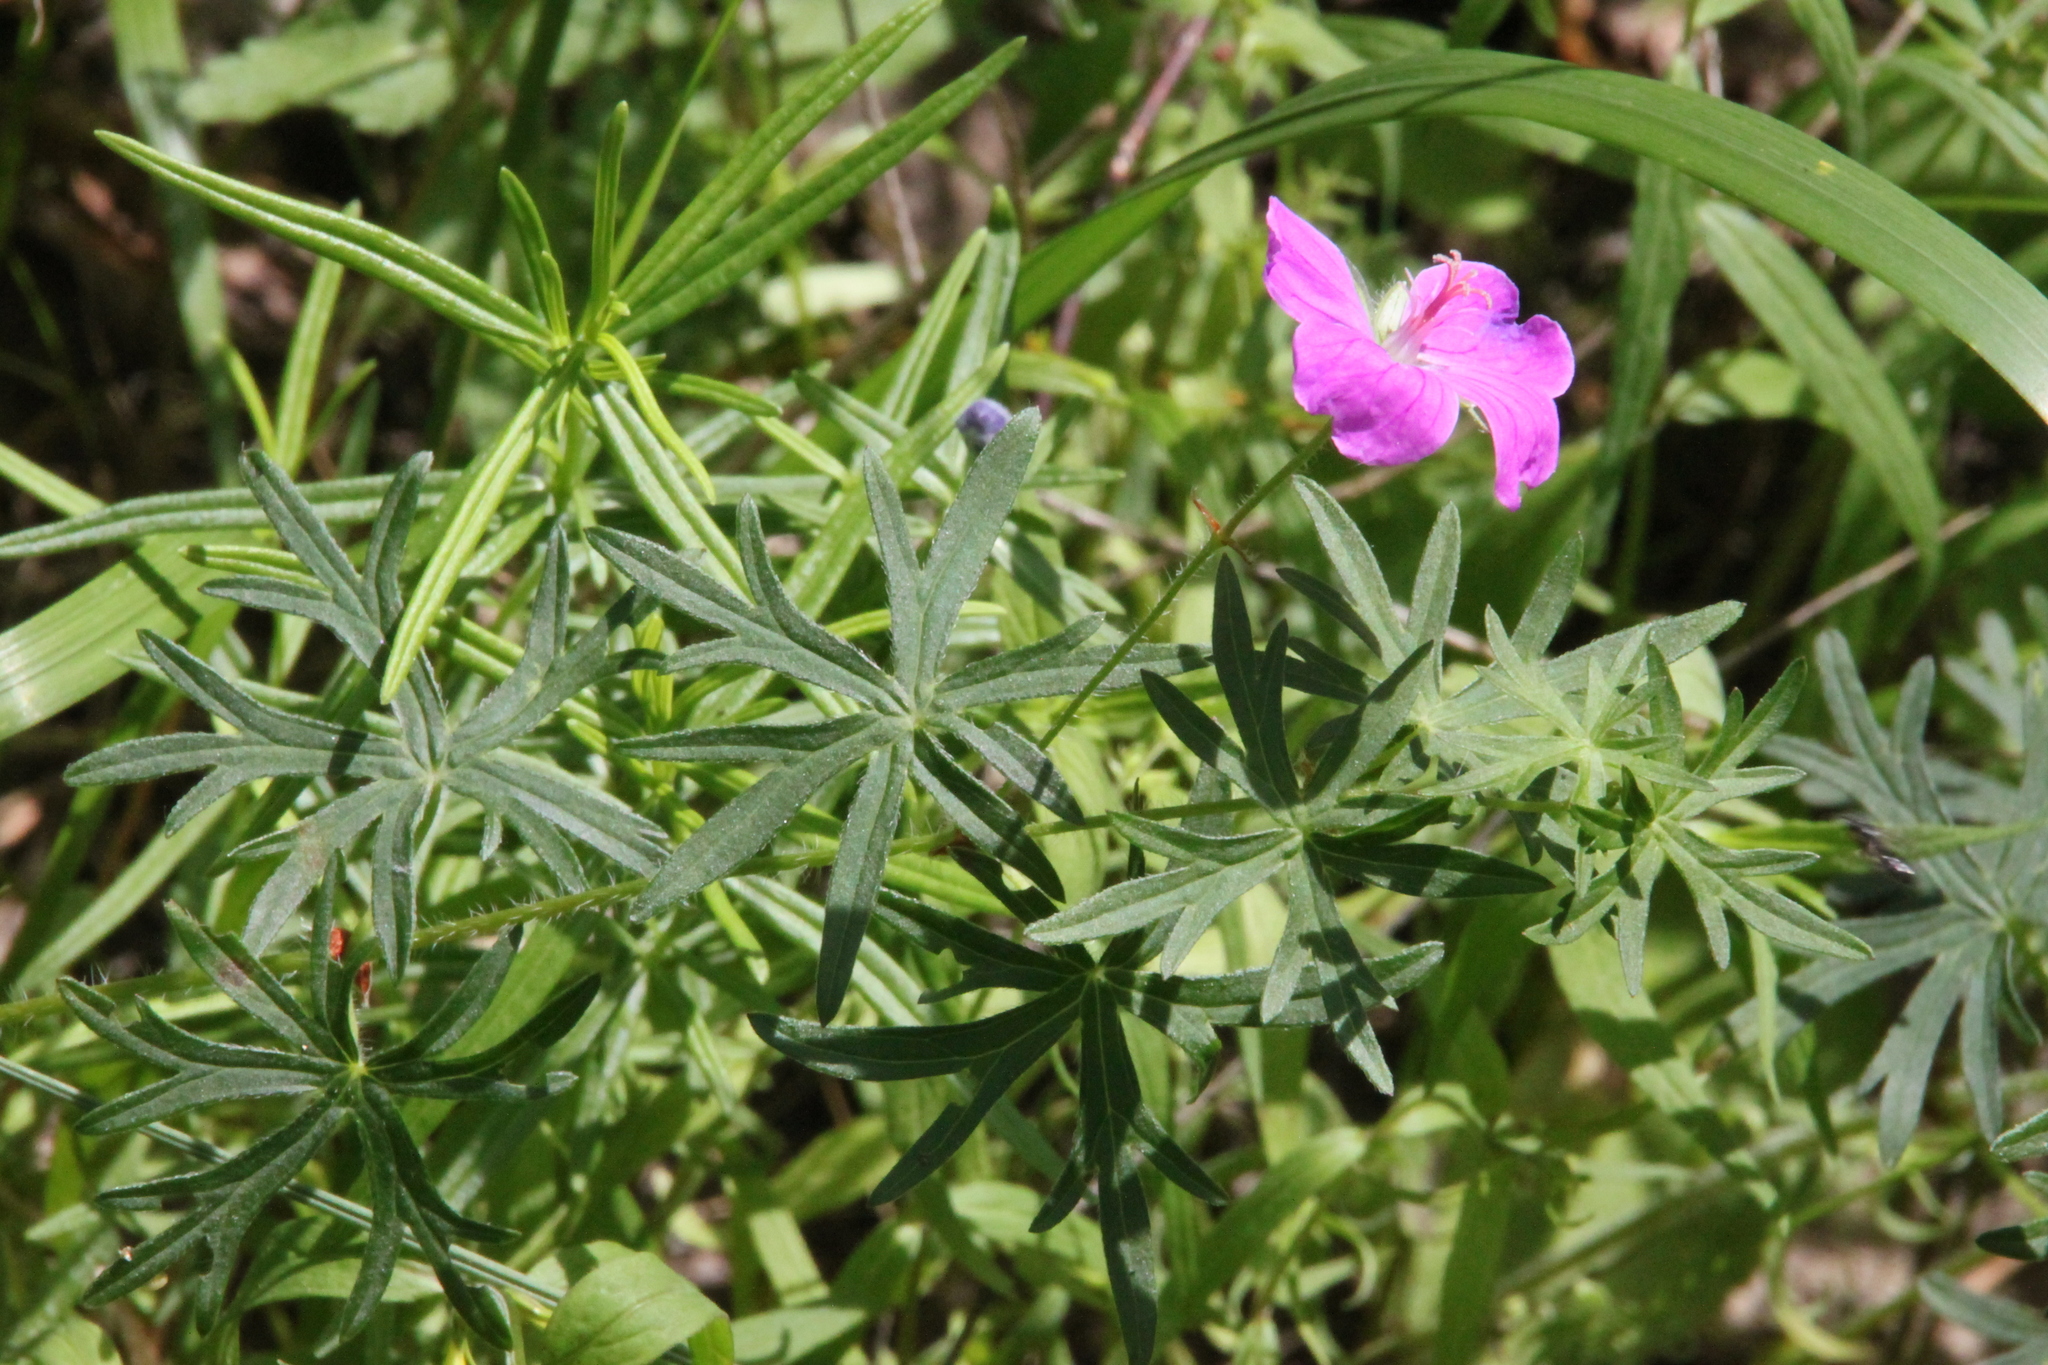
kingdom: Plantae
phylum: Tracheophyta
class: Magnoliopsida
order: Geraniales
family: Geraniaceae
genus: Geranium
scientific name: Geranium sanguineum
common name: Bloody crane's-bill
